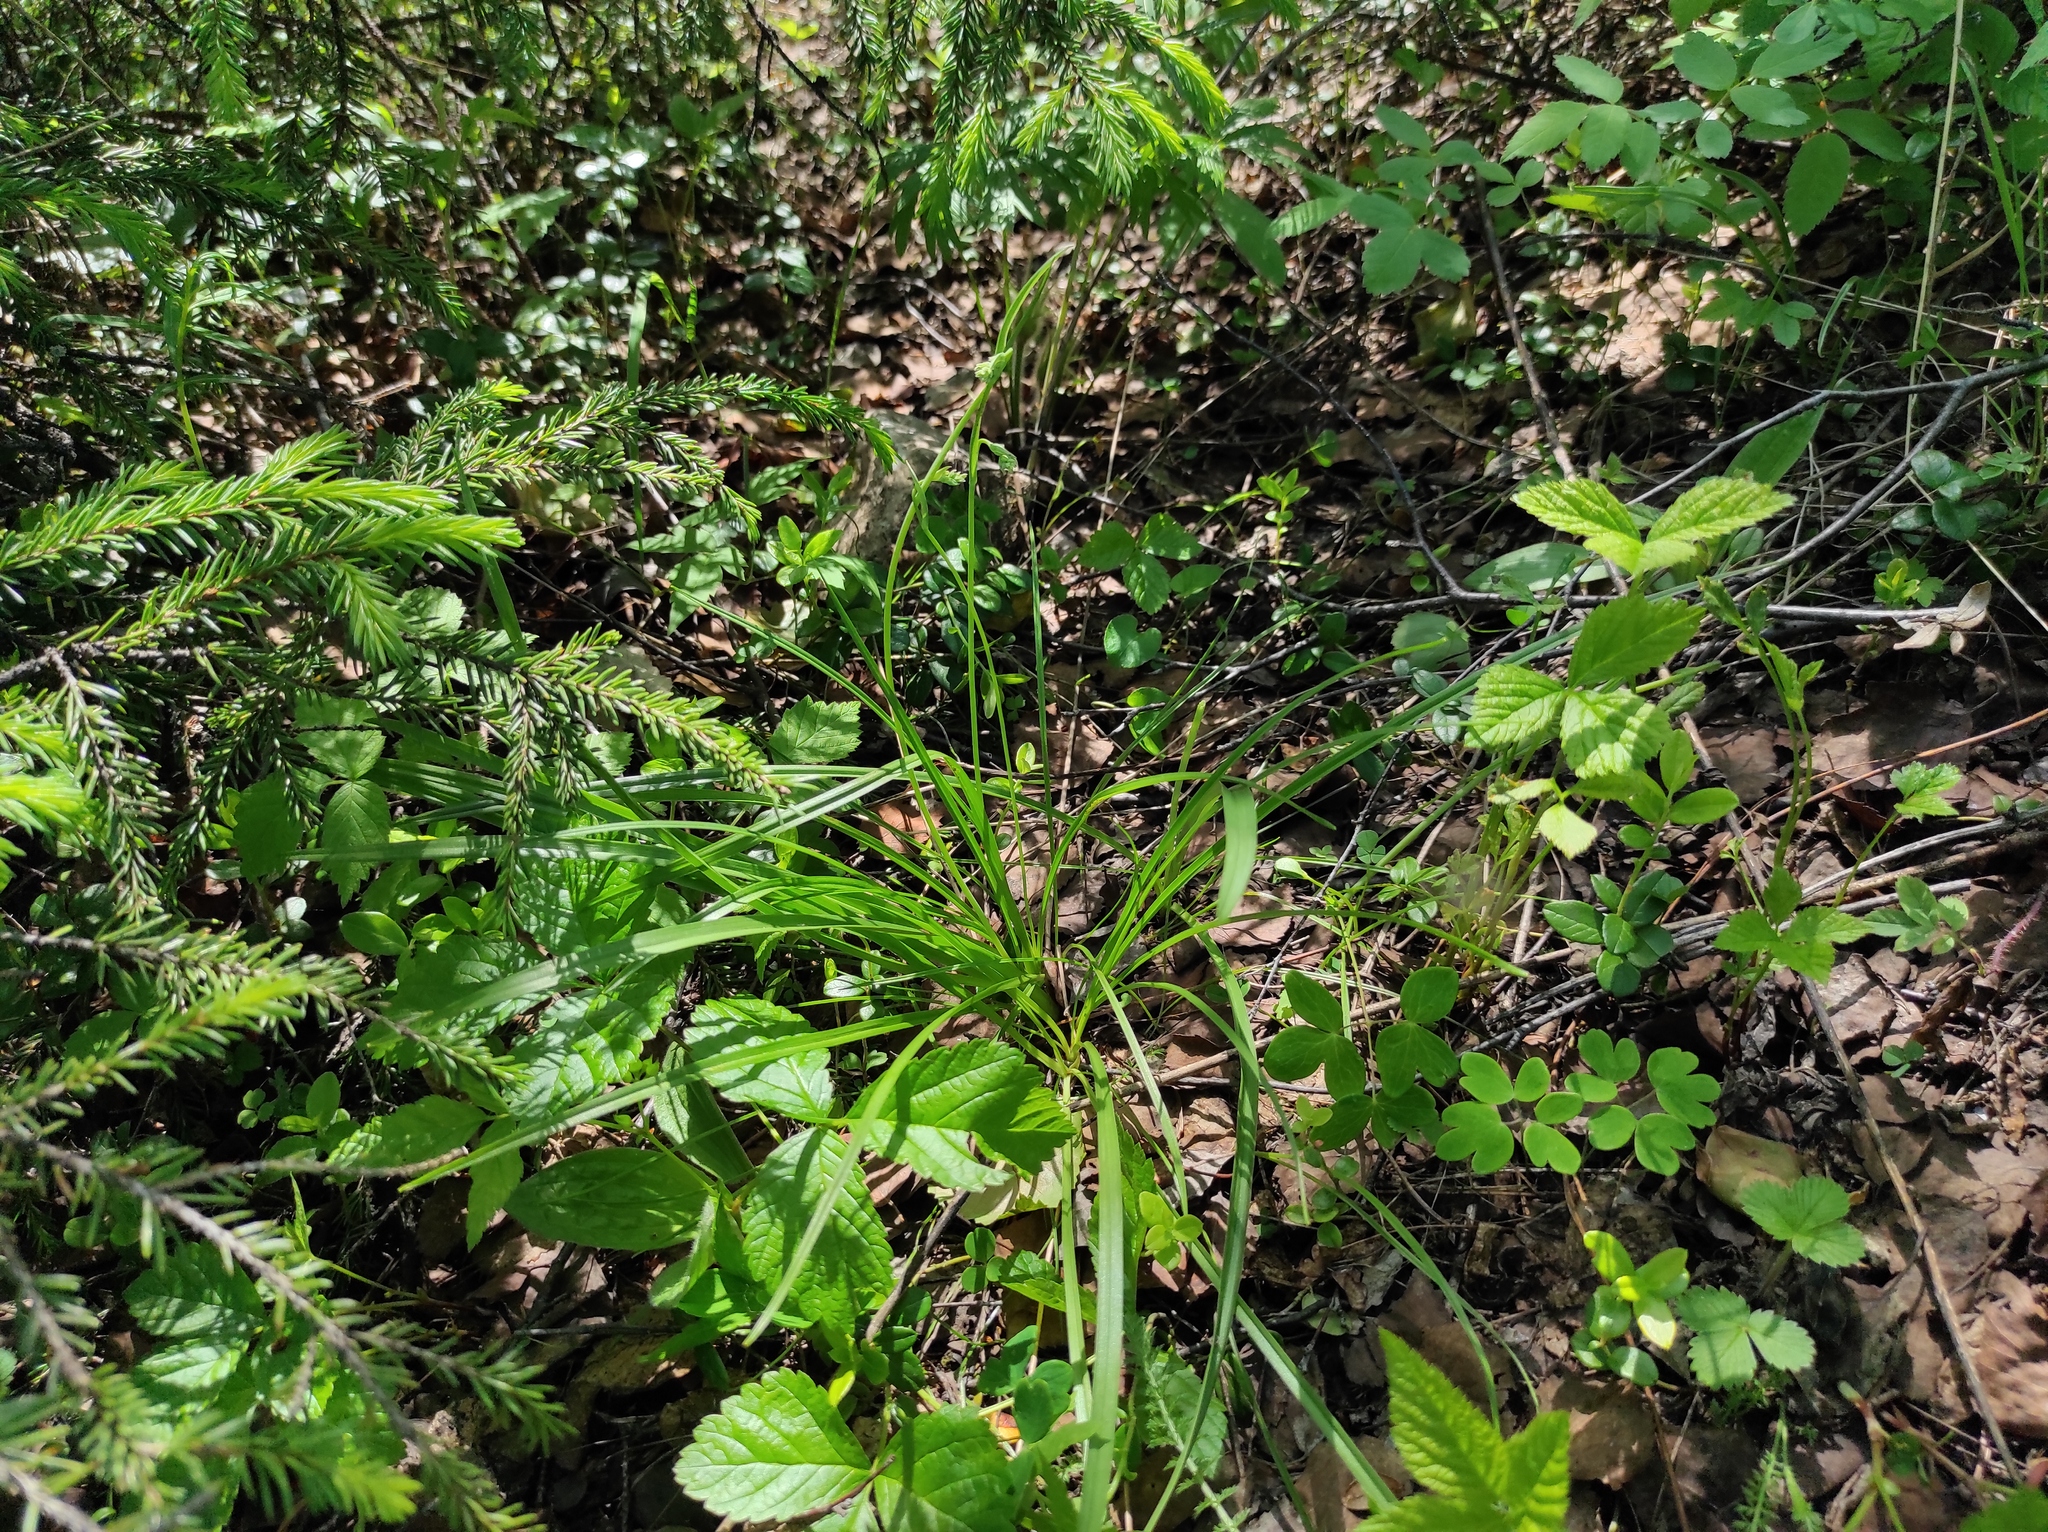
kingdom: Plantae
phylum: Tracheophyta
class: Magnoliopsida
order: Rosales
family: Rosaceae
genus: Rubus
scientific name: Rubus saxatilis
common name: Stone bramble
